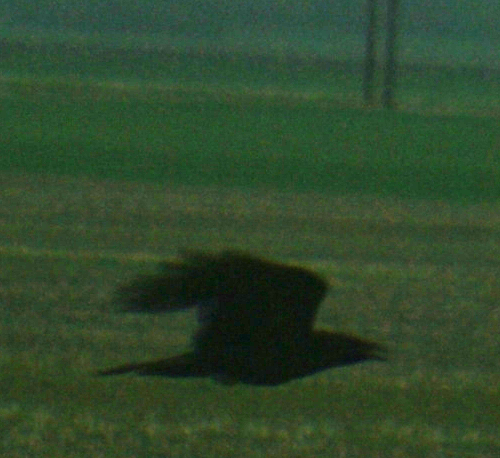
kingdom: Animalia
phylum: Chordata
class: Aves
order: Passeriformes
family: Corvidae
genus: Corvus
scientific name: Corvus corax
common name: Common raven
